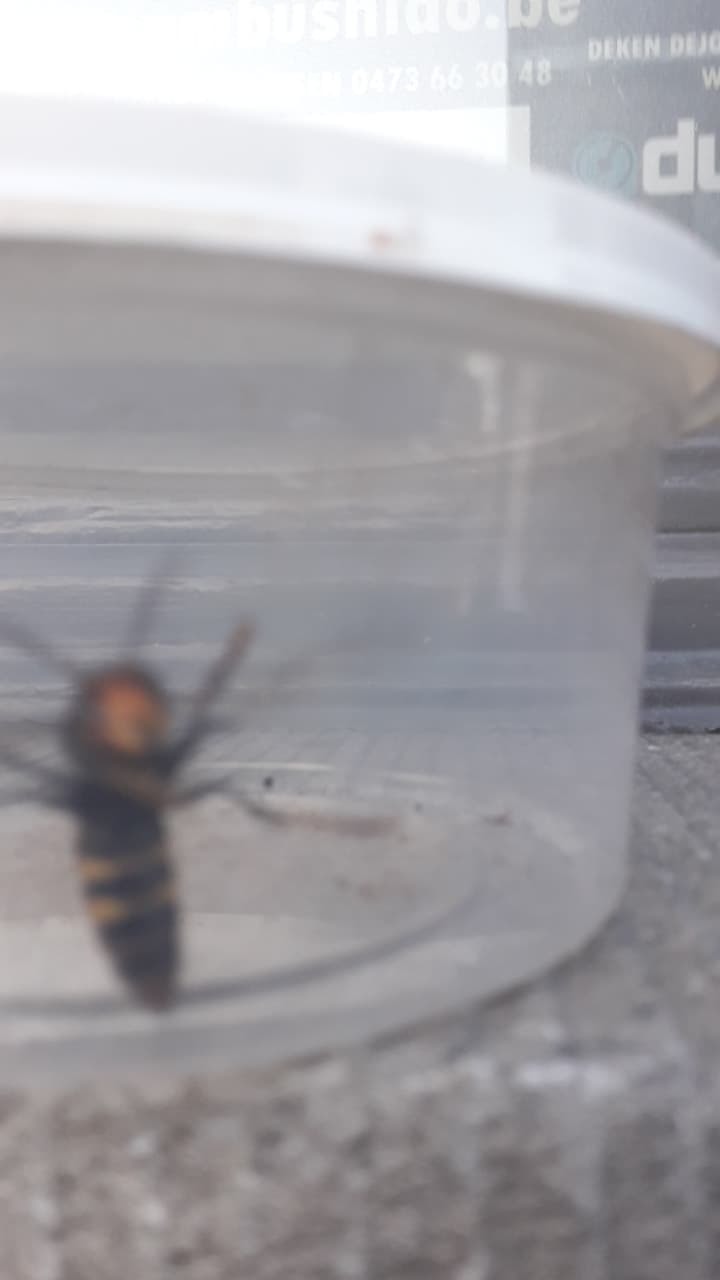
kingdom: Animalia
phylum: Arthropoda
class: Insecta
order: Hymenoptera
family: Vespidae
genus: Vespa
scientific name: Vespa velutina
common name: Asian hornet
